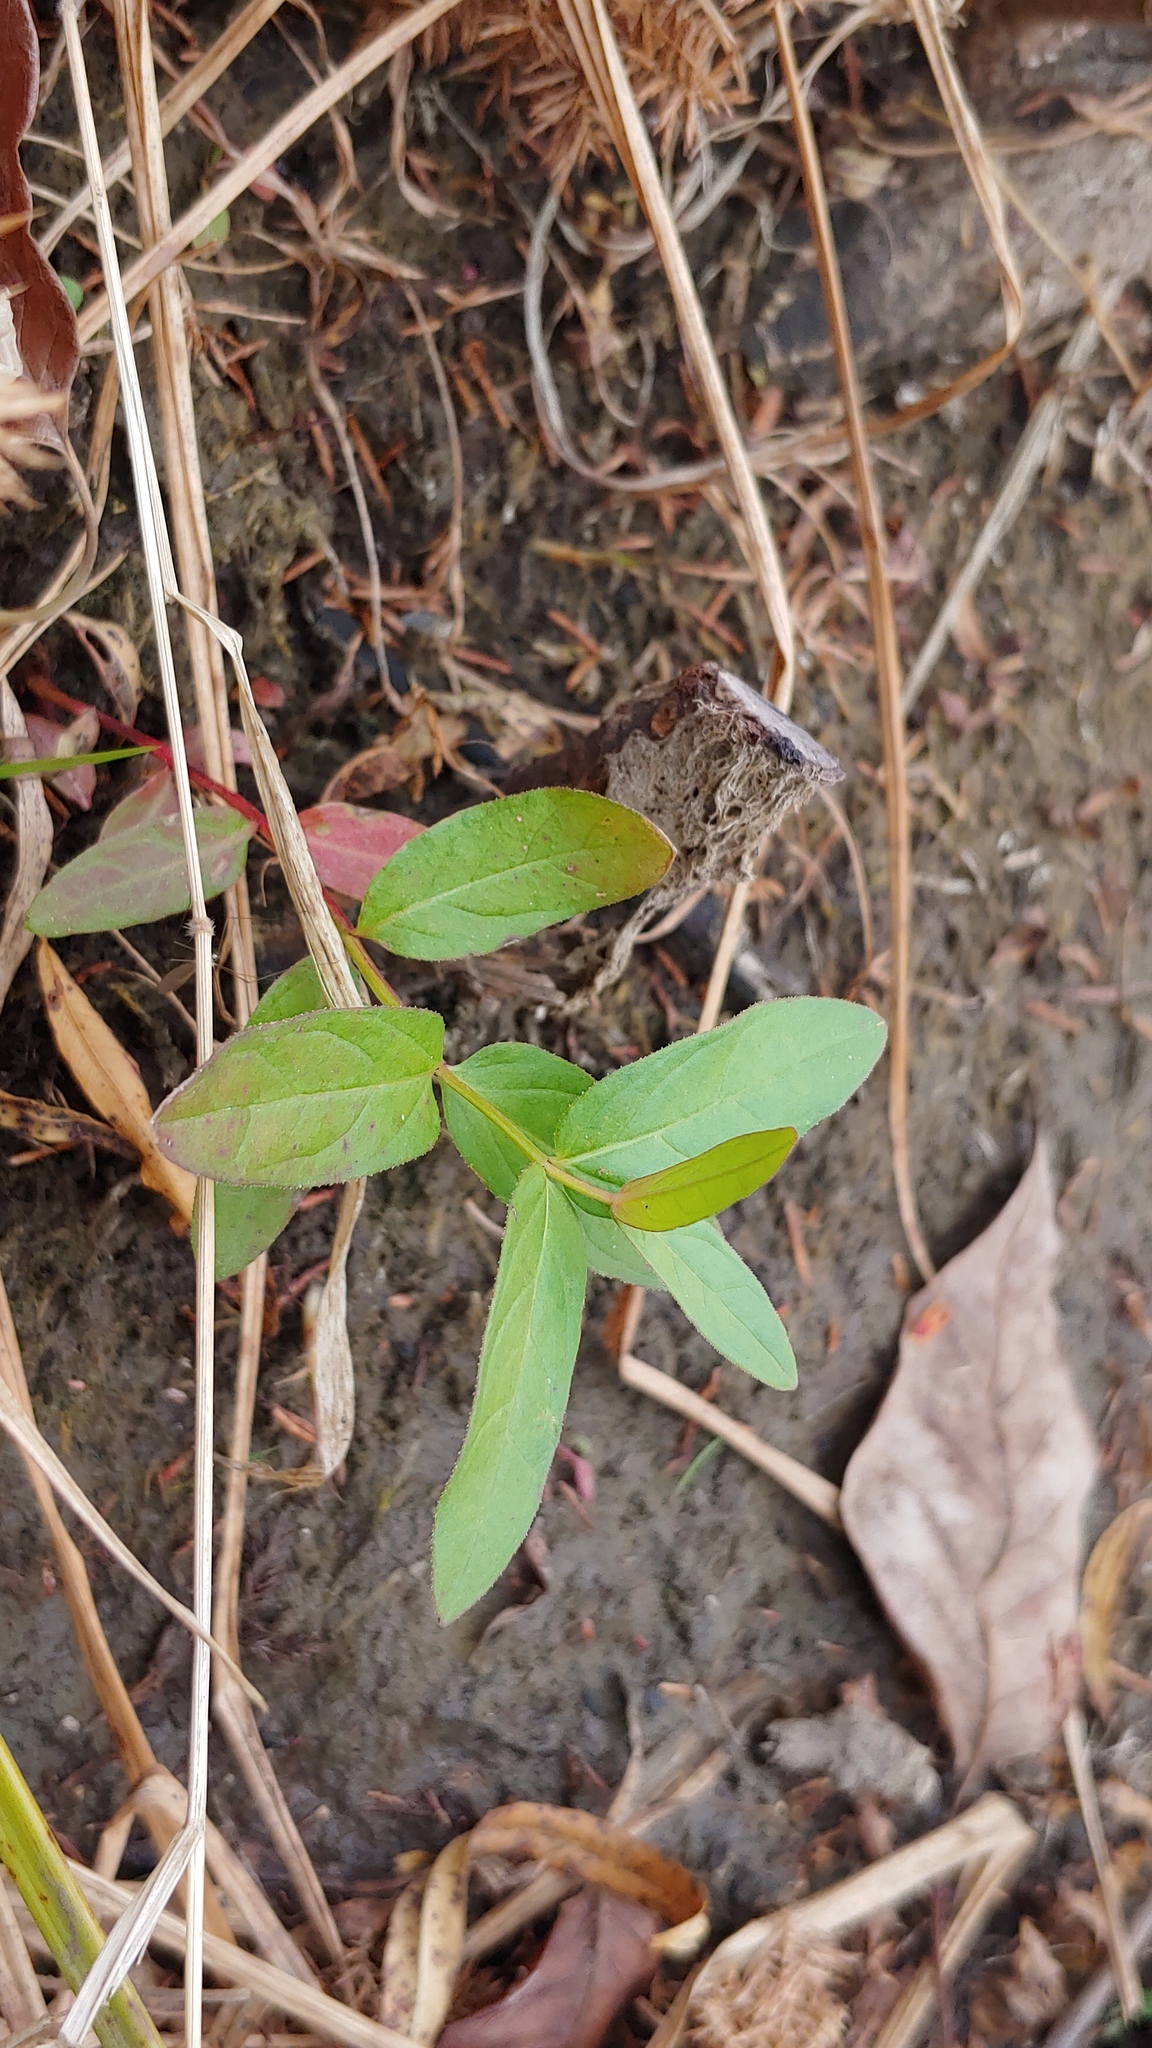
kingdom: Plantae
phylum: Tracheophyta
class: Magnoliopsida
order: Myrtales
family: Lythraceae
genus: Lythrum
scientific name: Lythrum salicaria
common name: Purple loosestrife
